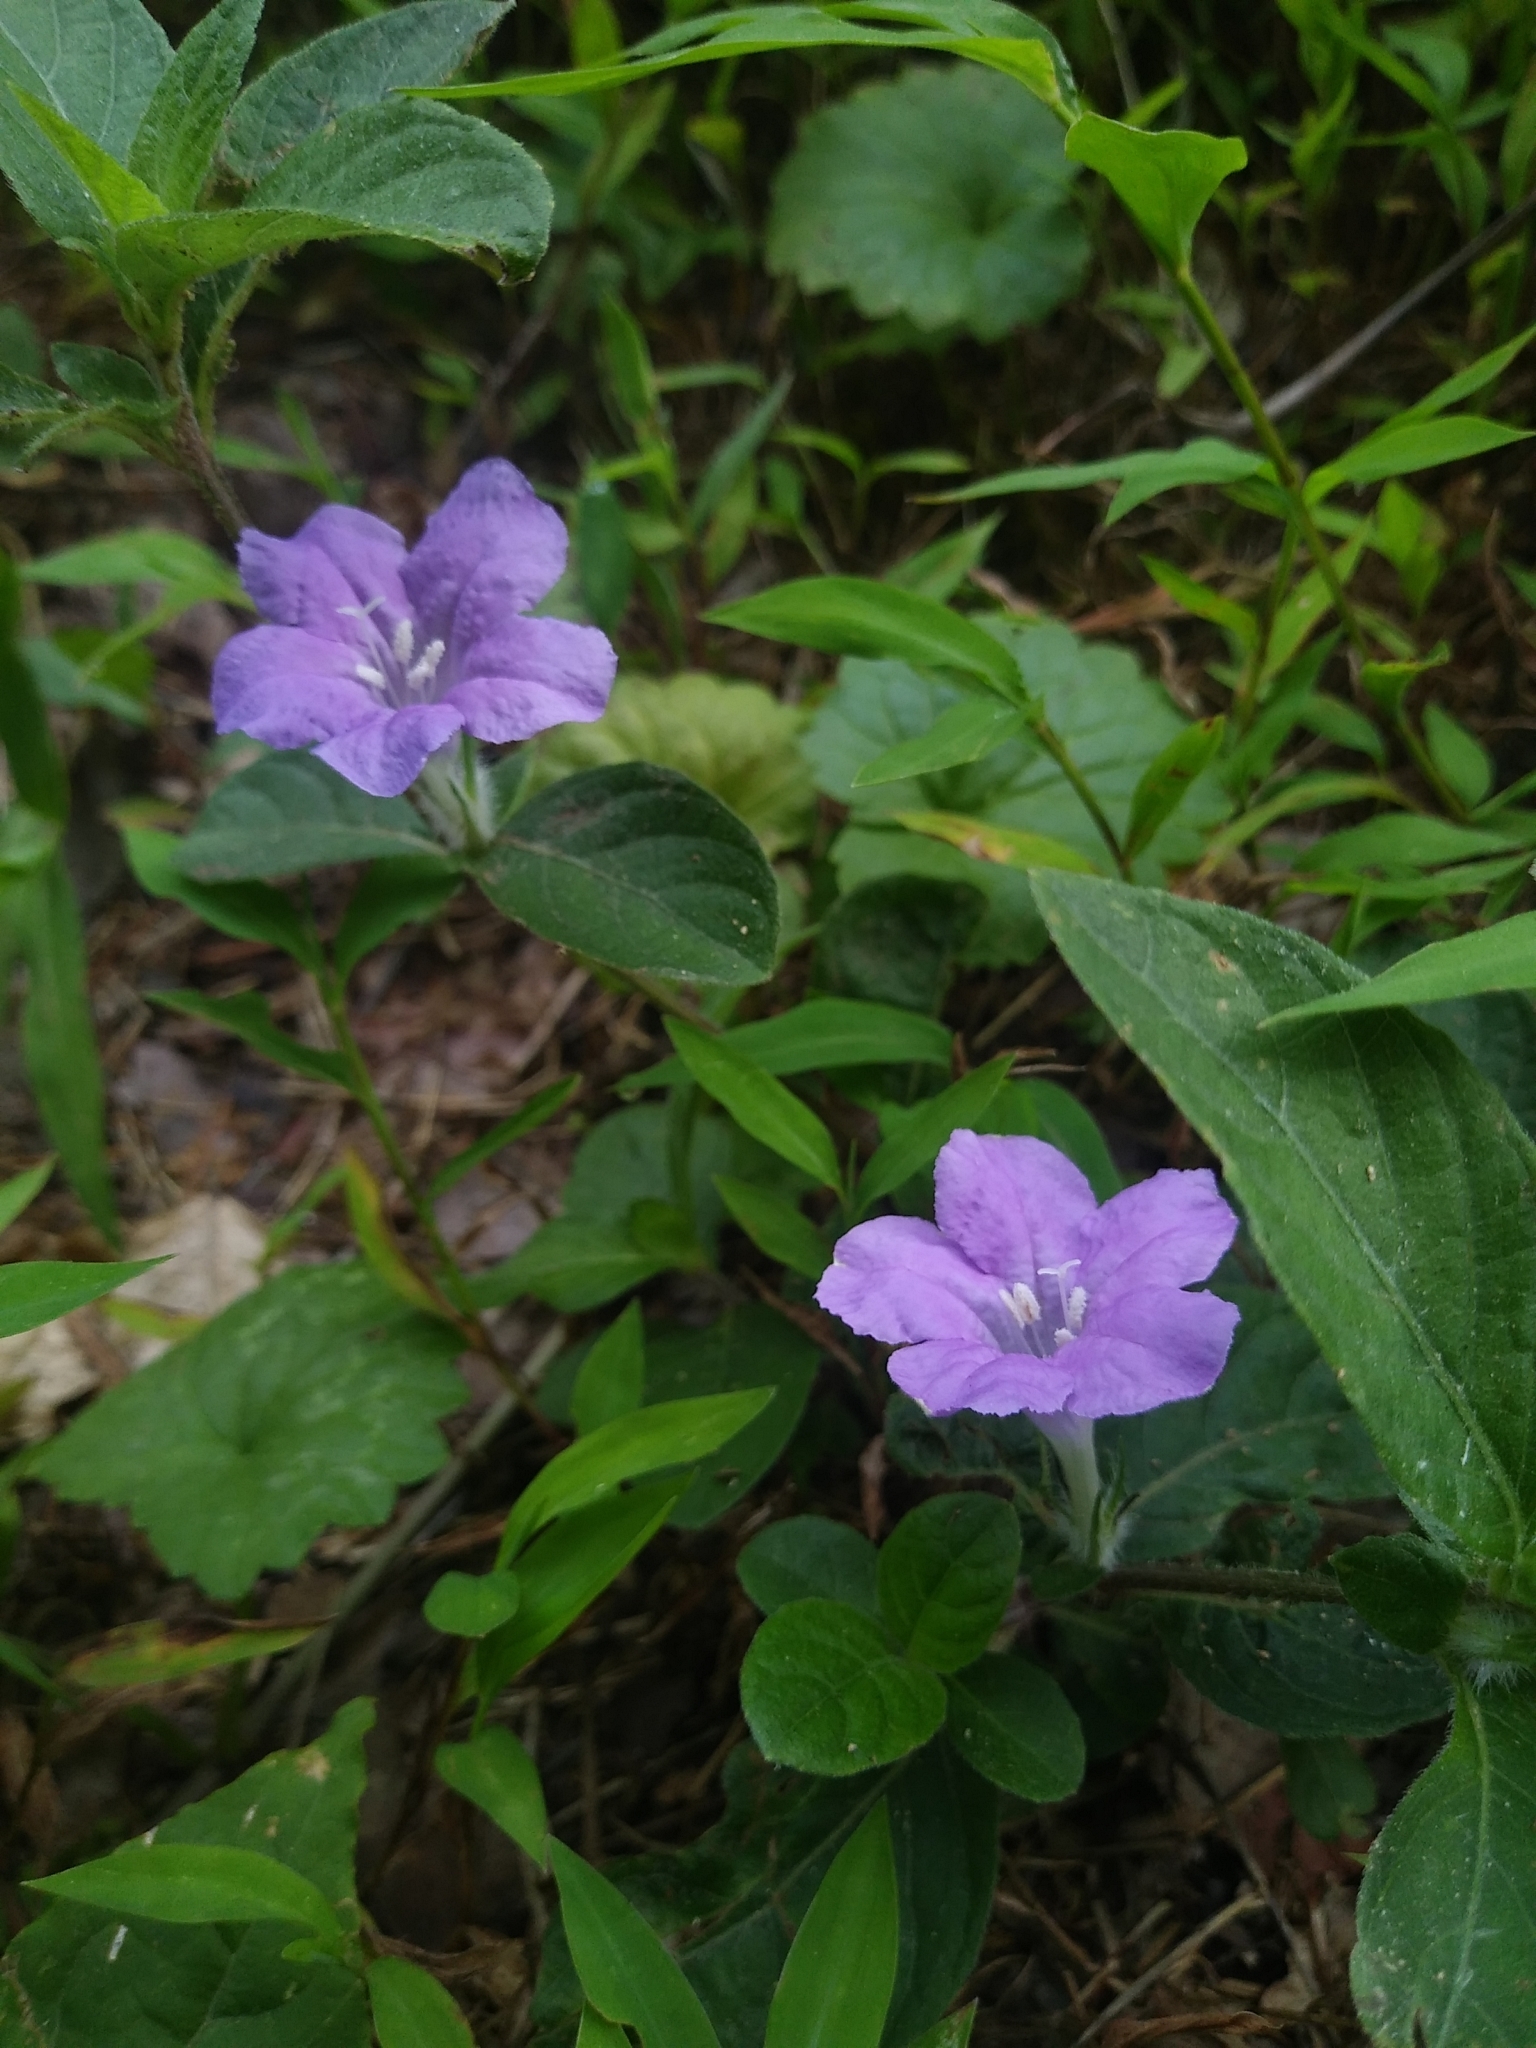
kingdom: Plantae
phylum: Tracheophyta
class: Magnoliopsida
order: Lamiales
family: Acanthaceae
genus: Ruellia
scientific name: Ruellia caroliniensis
